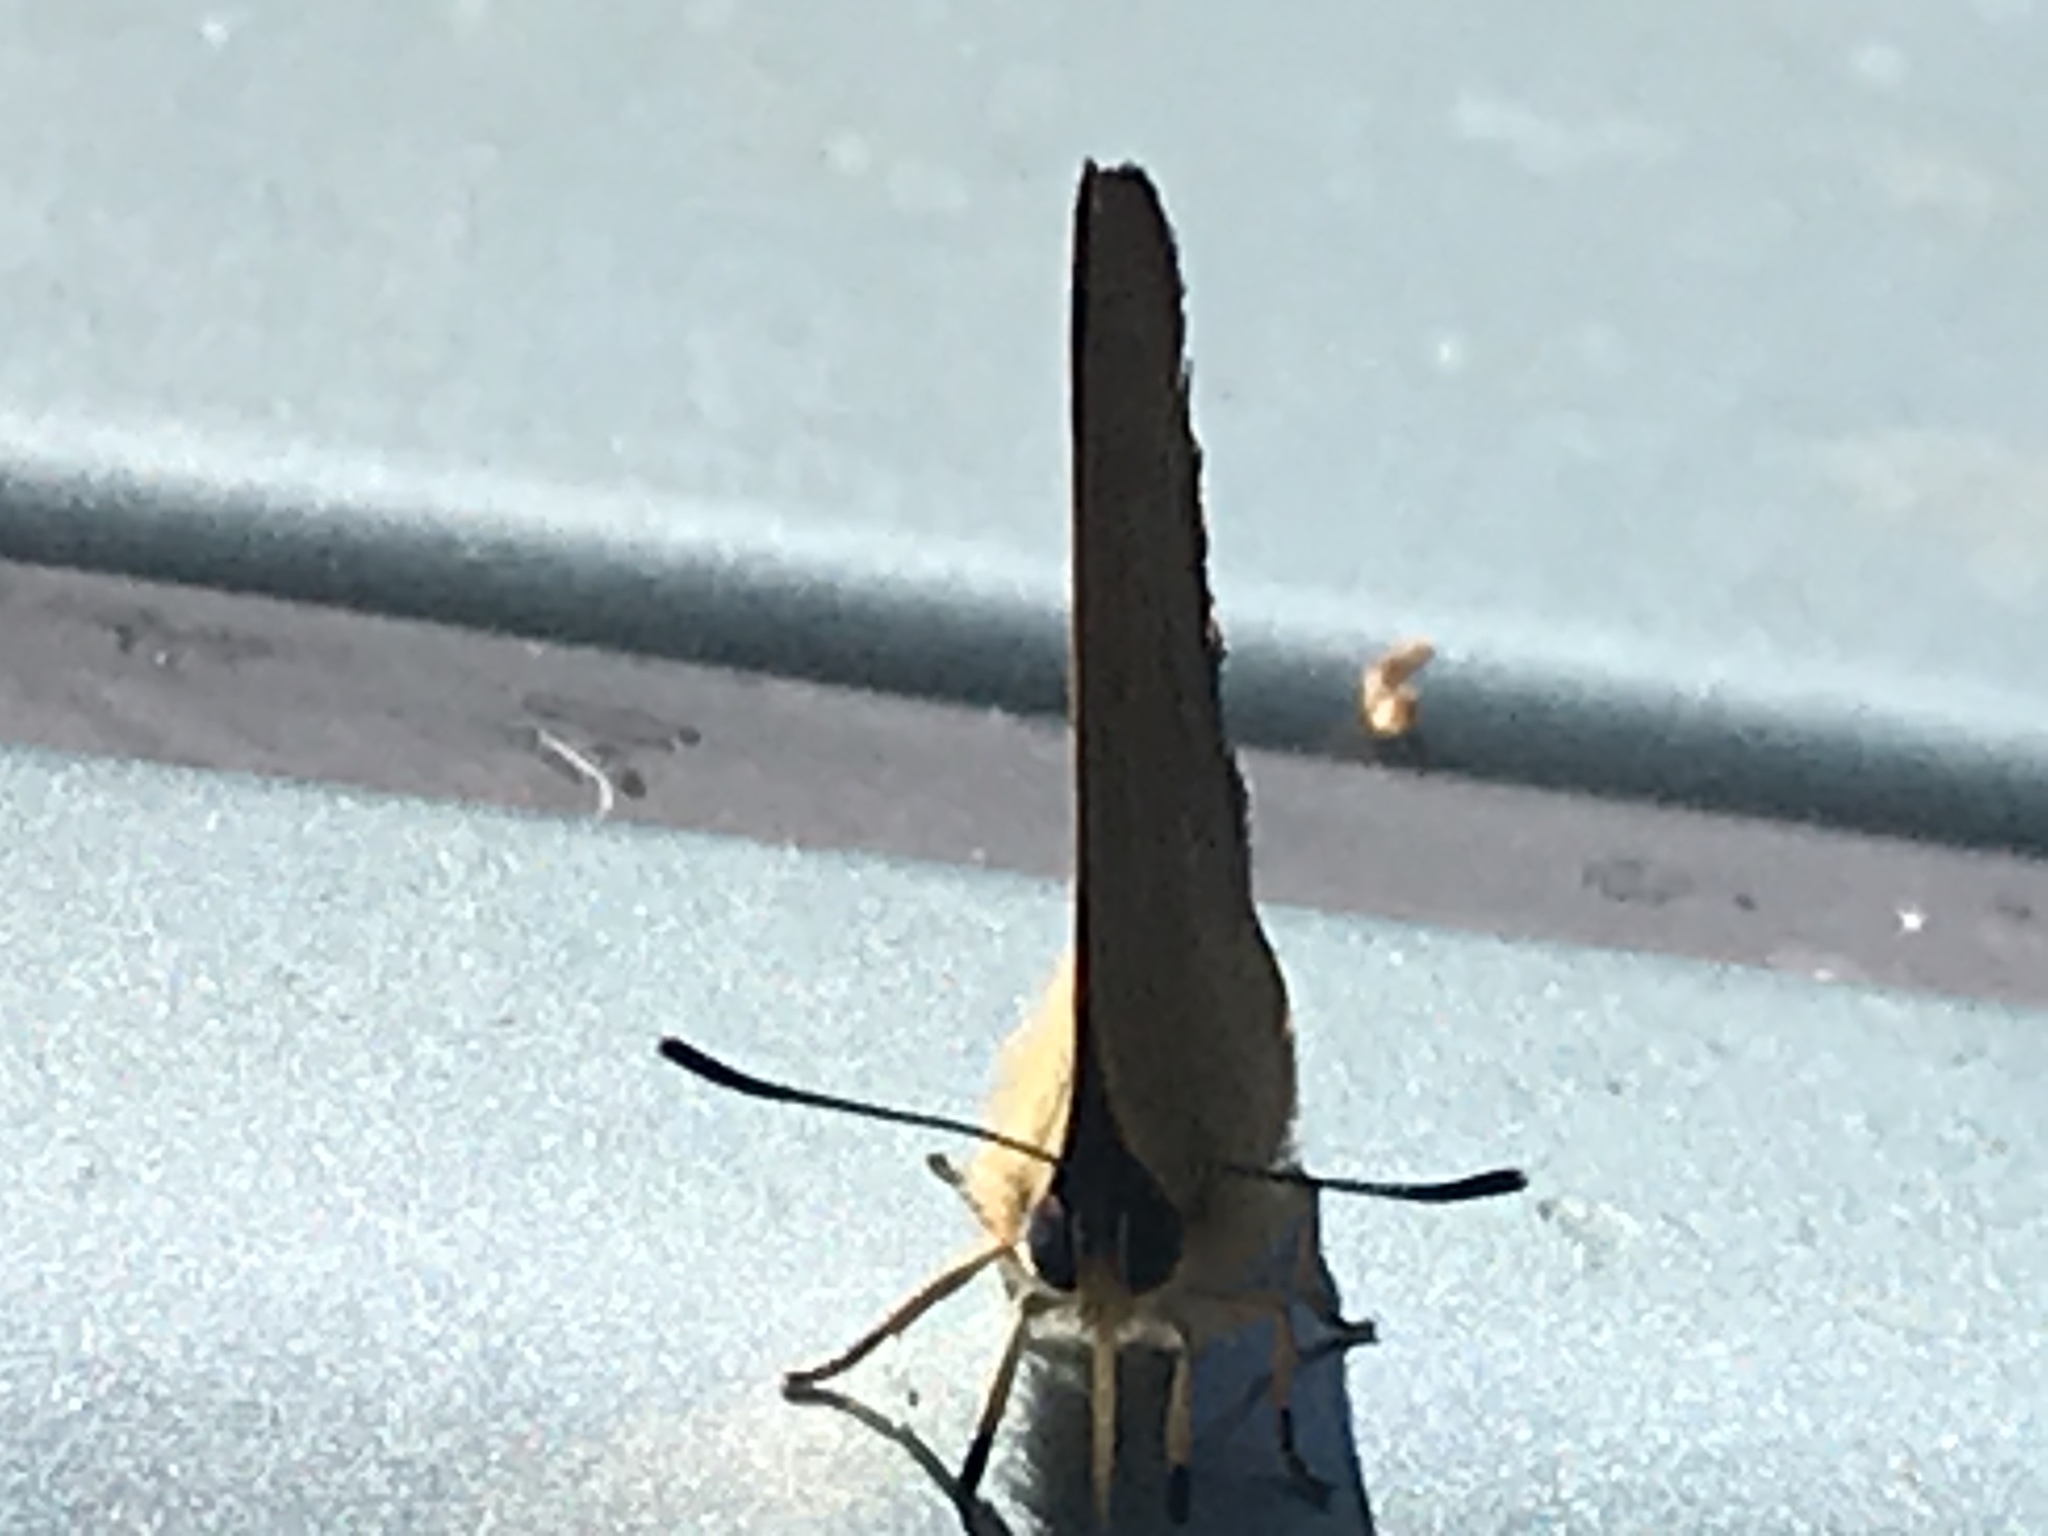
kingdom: Animalia
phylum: Arthropoda
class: Insecta
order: Lepidoptera
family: Lycaenidae
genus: Habrodais
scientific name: Habrodais grunus
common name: Golden hairstreak
